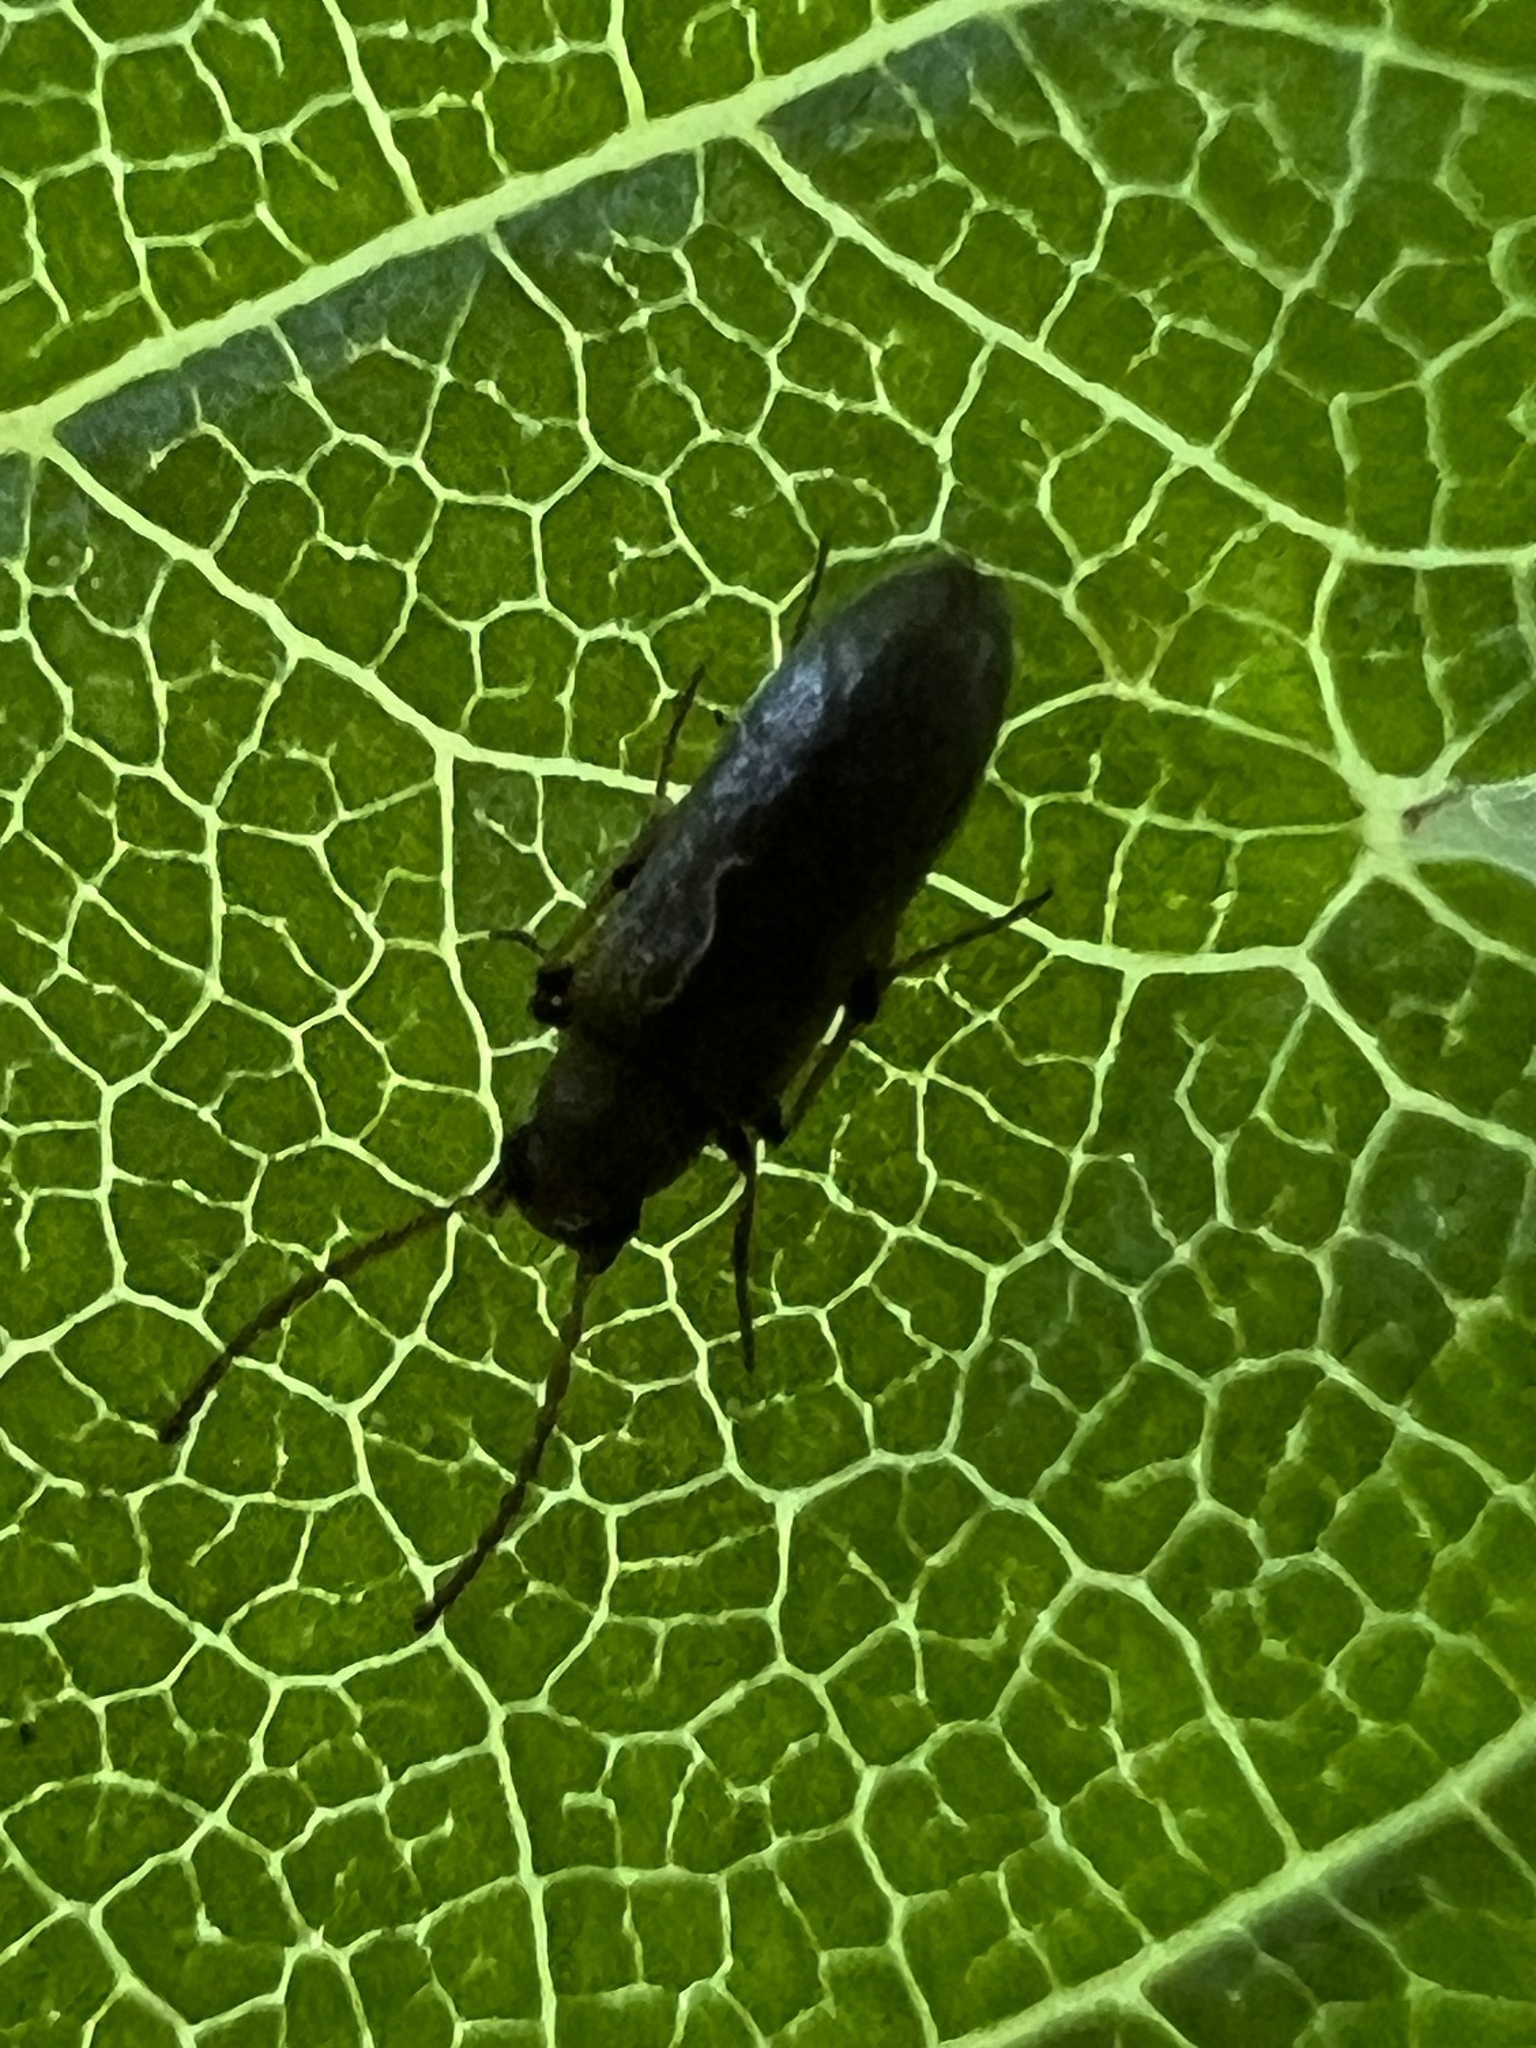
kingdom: Animalia
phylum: Arthropoda
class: Insecta
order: Coleoptera
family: Melandryidae
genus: Microtonus
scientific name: Microtonus sericans
